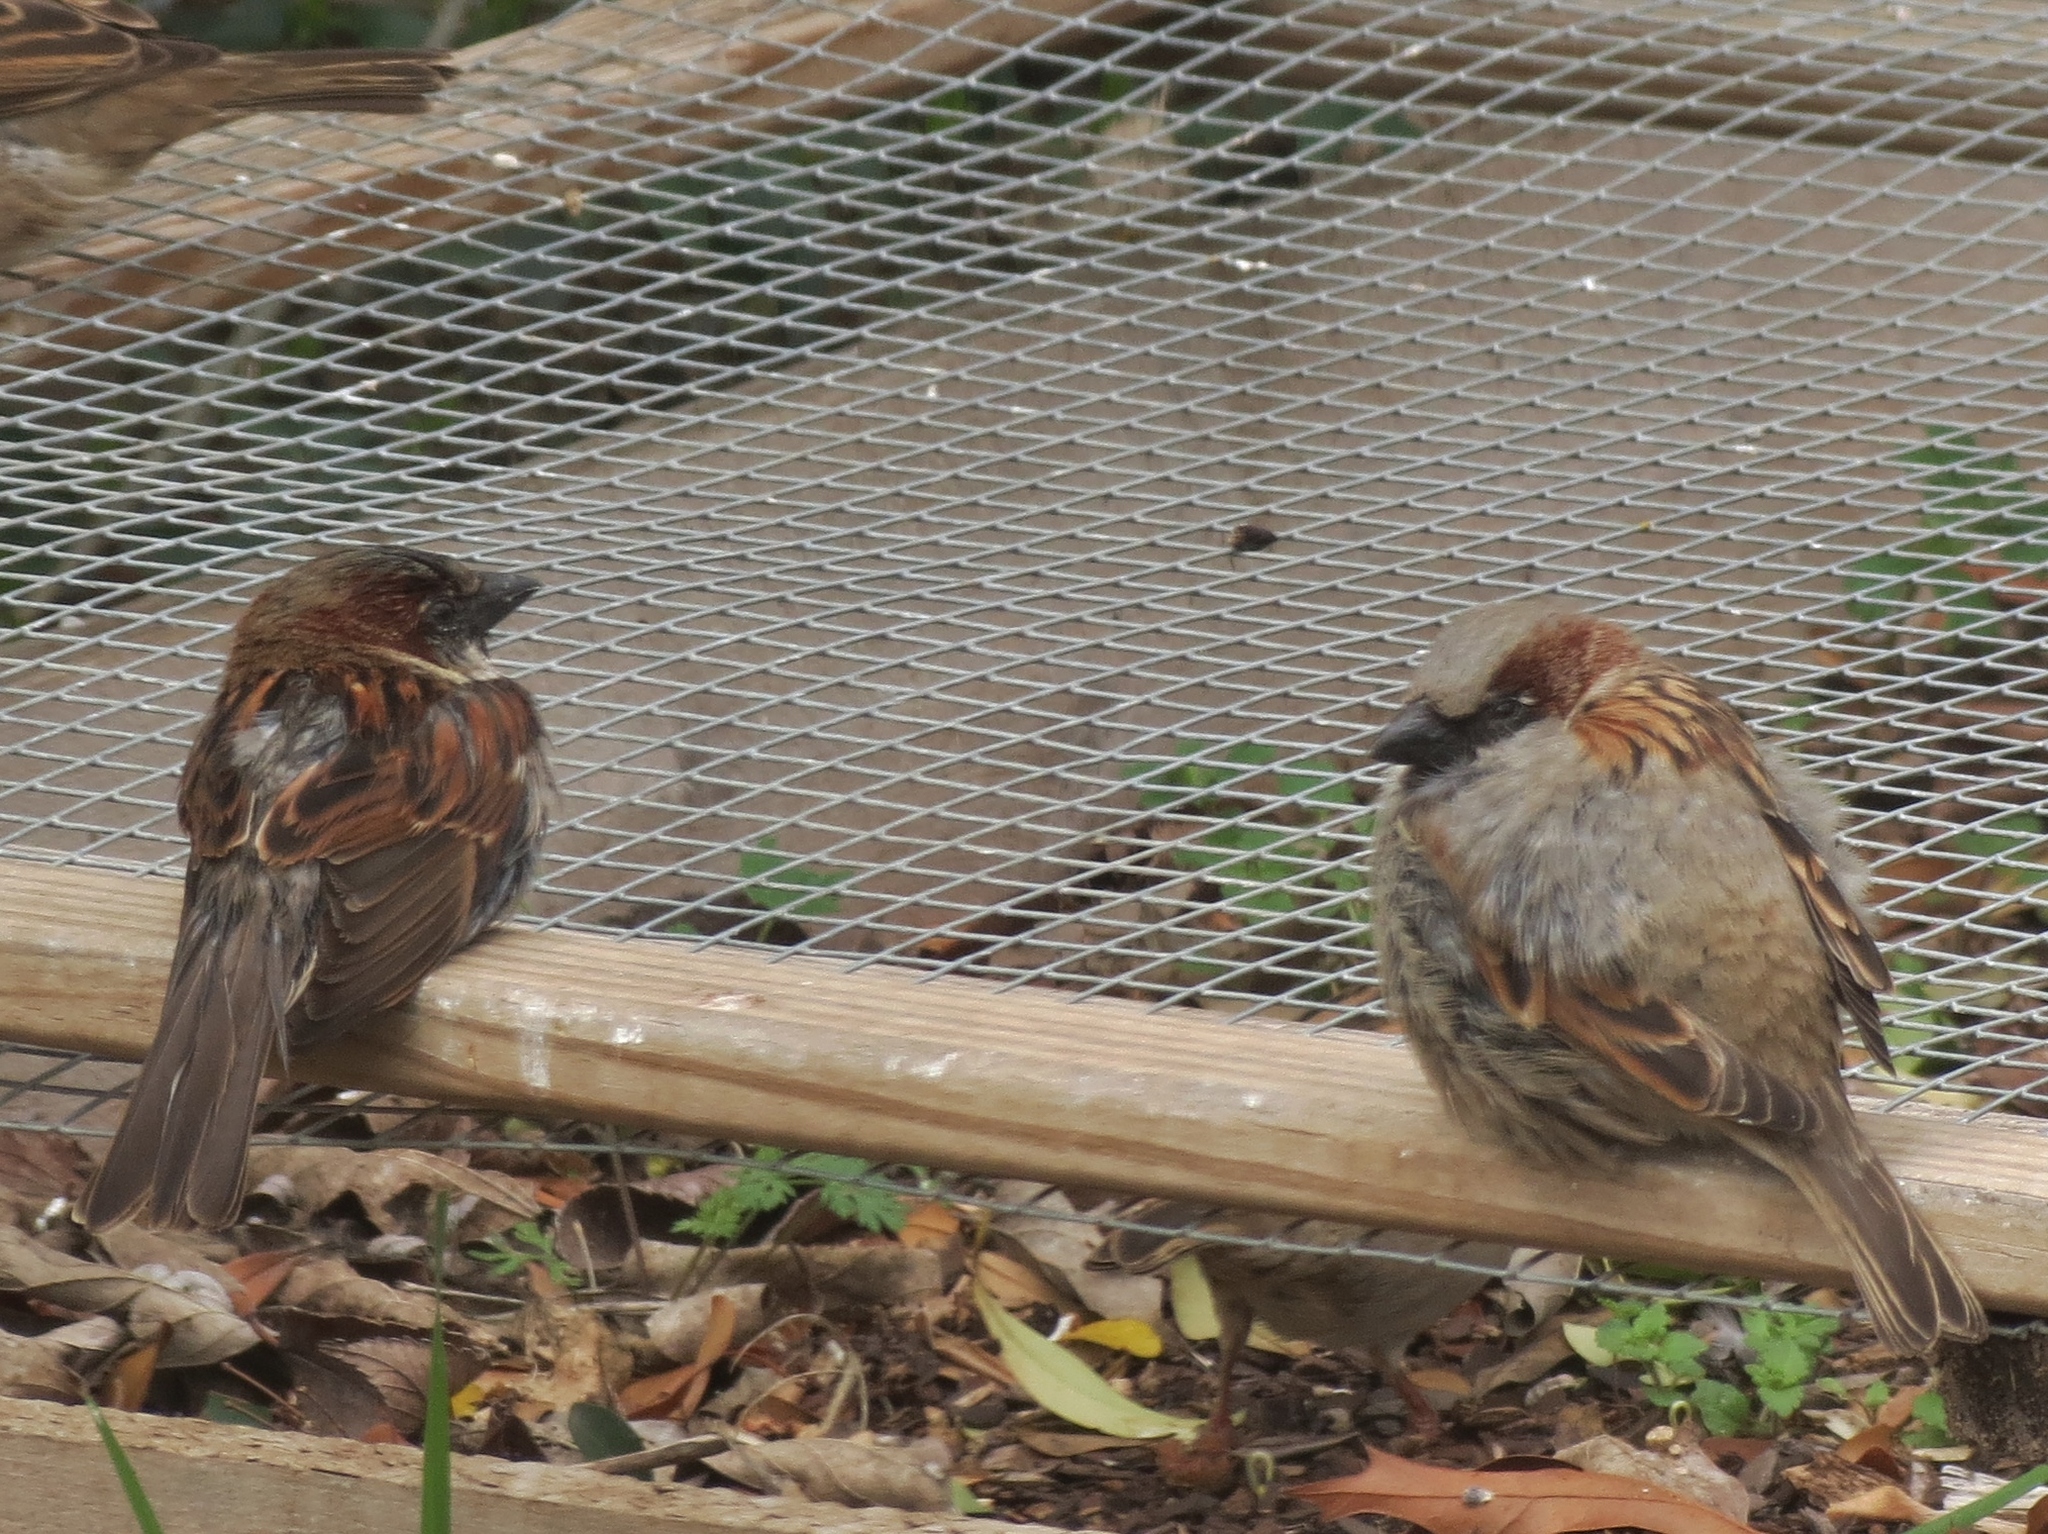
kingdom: Animalia
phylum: Chordata
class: Aves
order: Passeriformes
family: Passeridae
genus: Passer
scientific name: Passer domesticus
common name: House sparrow
